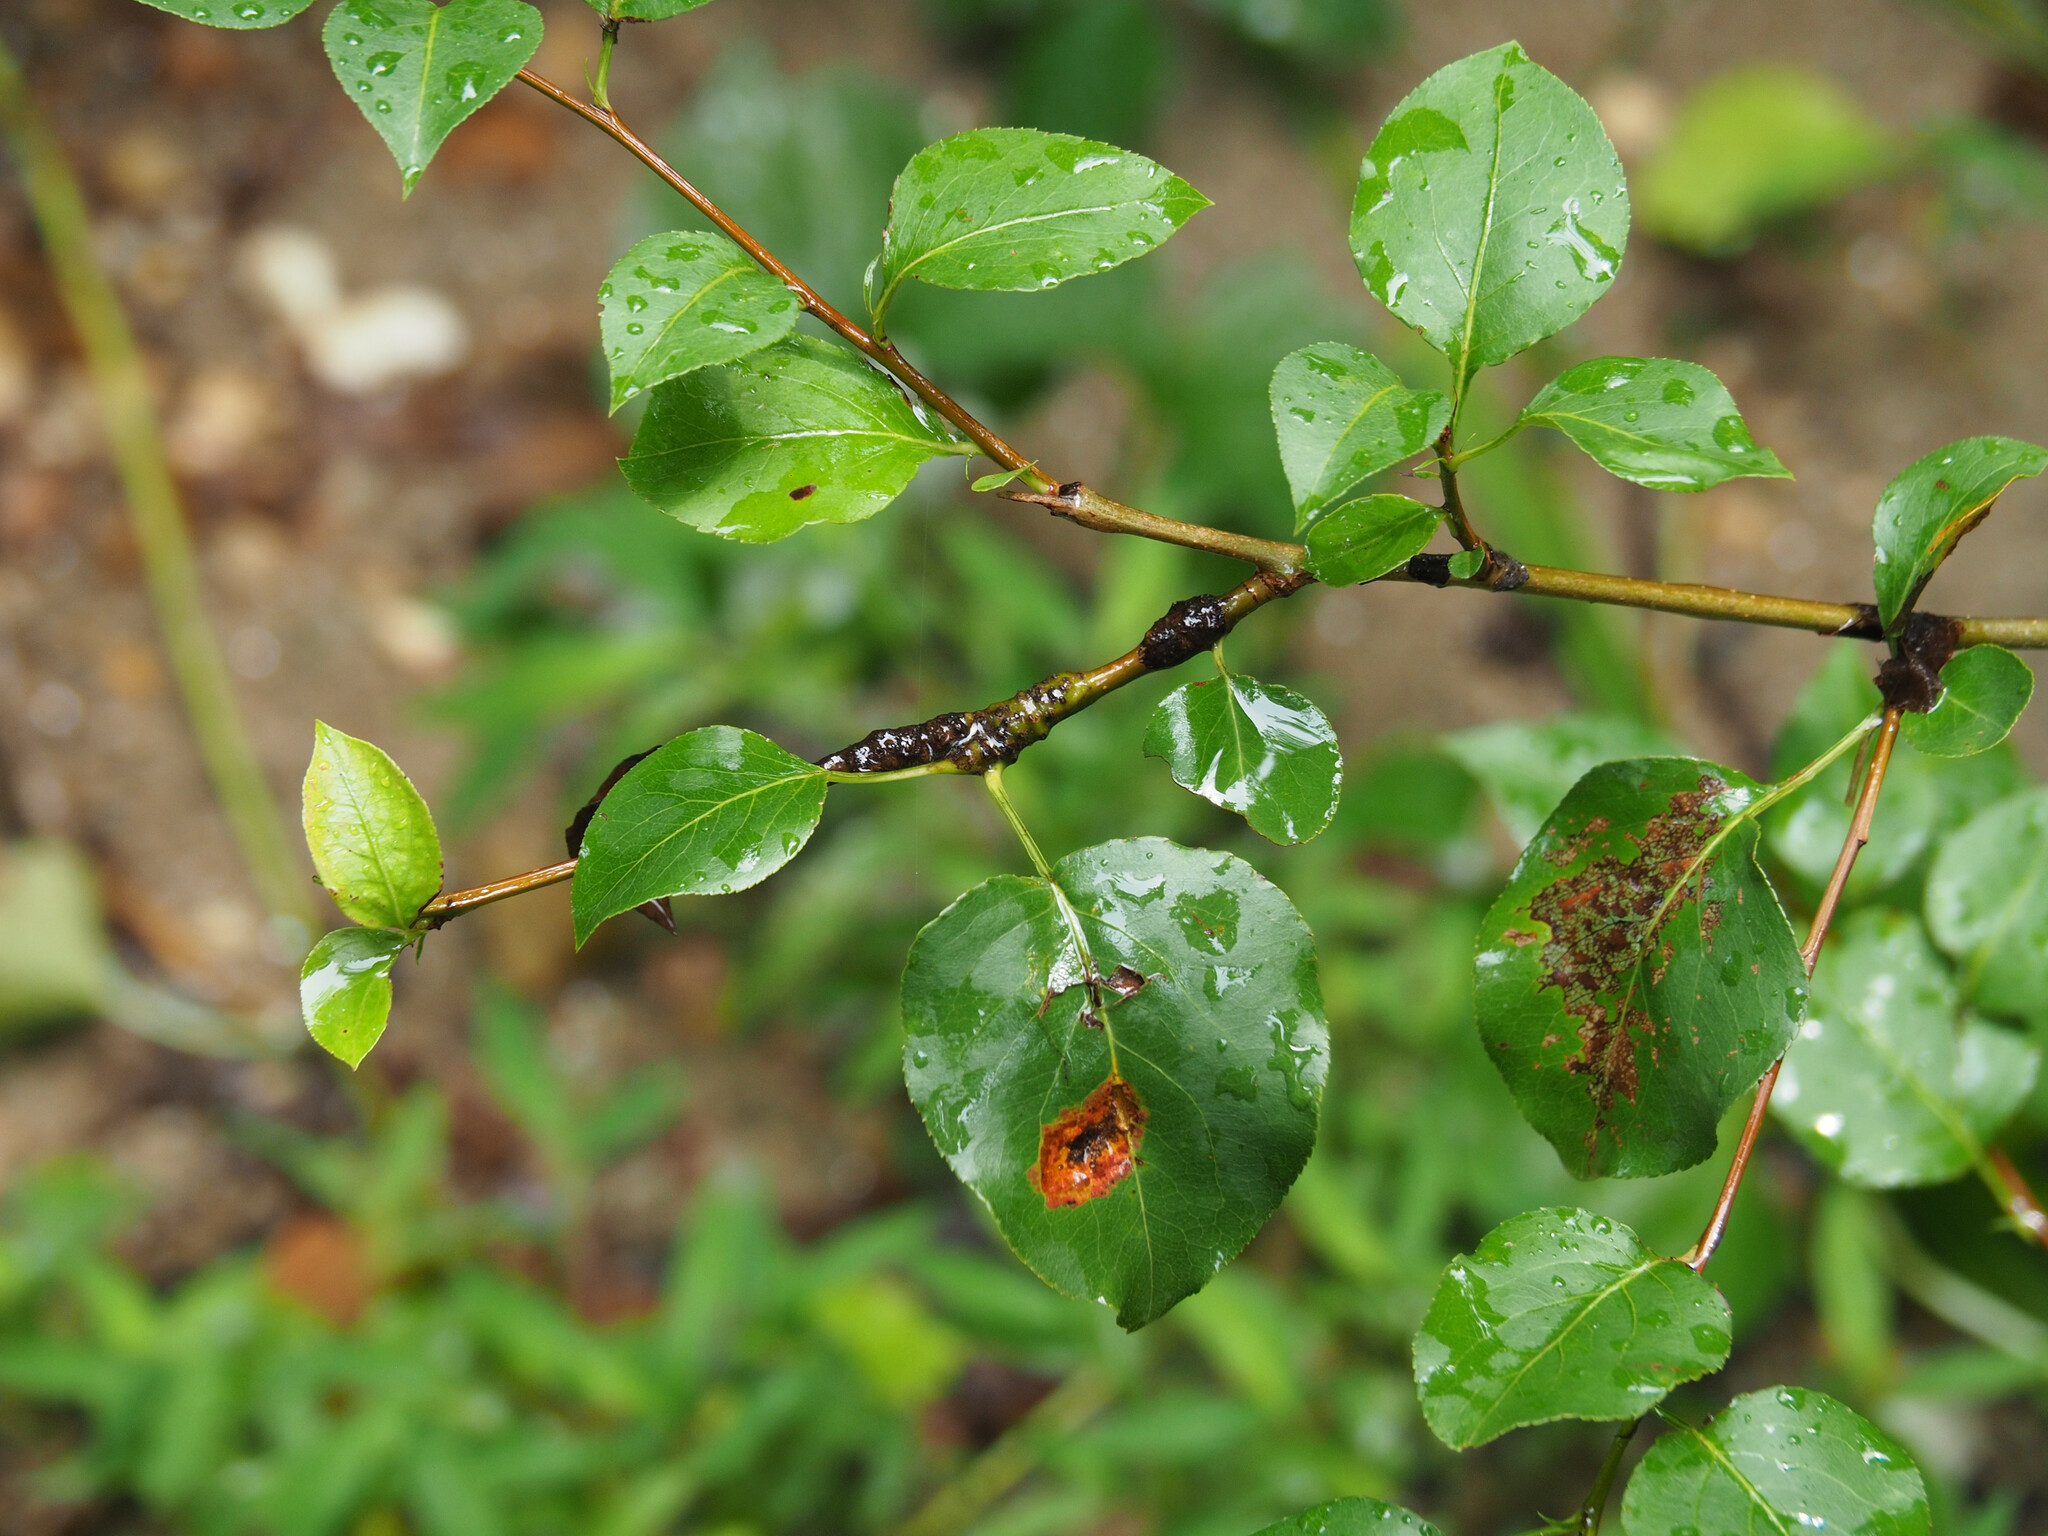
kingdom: Fungi
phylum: Basidiomycota
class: Pucciniomycetes
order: Pucciniales
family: Gymnosporangiaceae
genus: Gymnosporangium
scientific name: Gymnosporangium sabinae
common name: Pear trellis rust fungus
